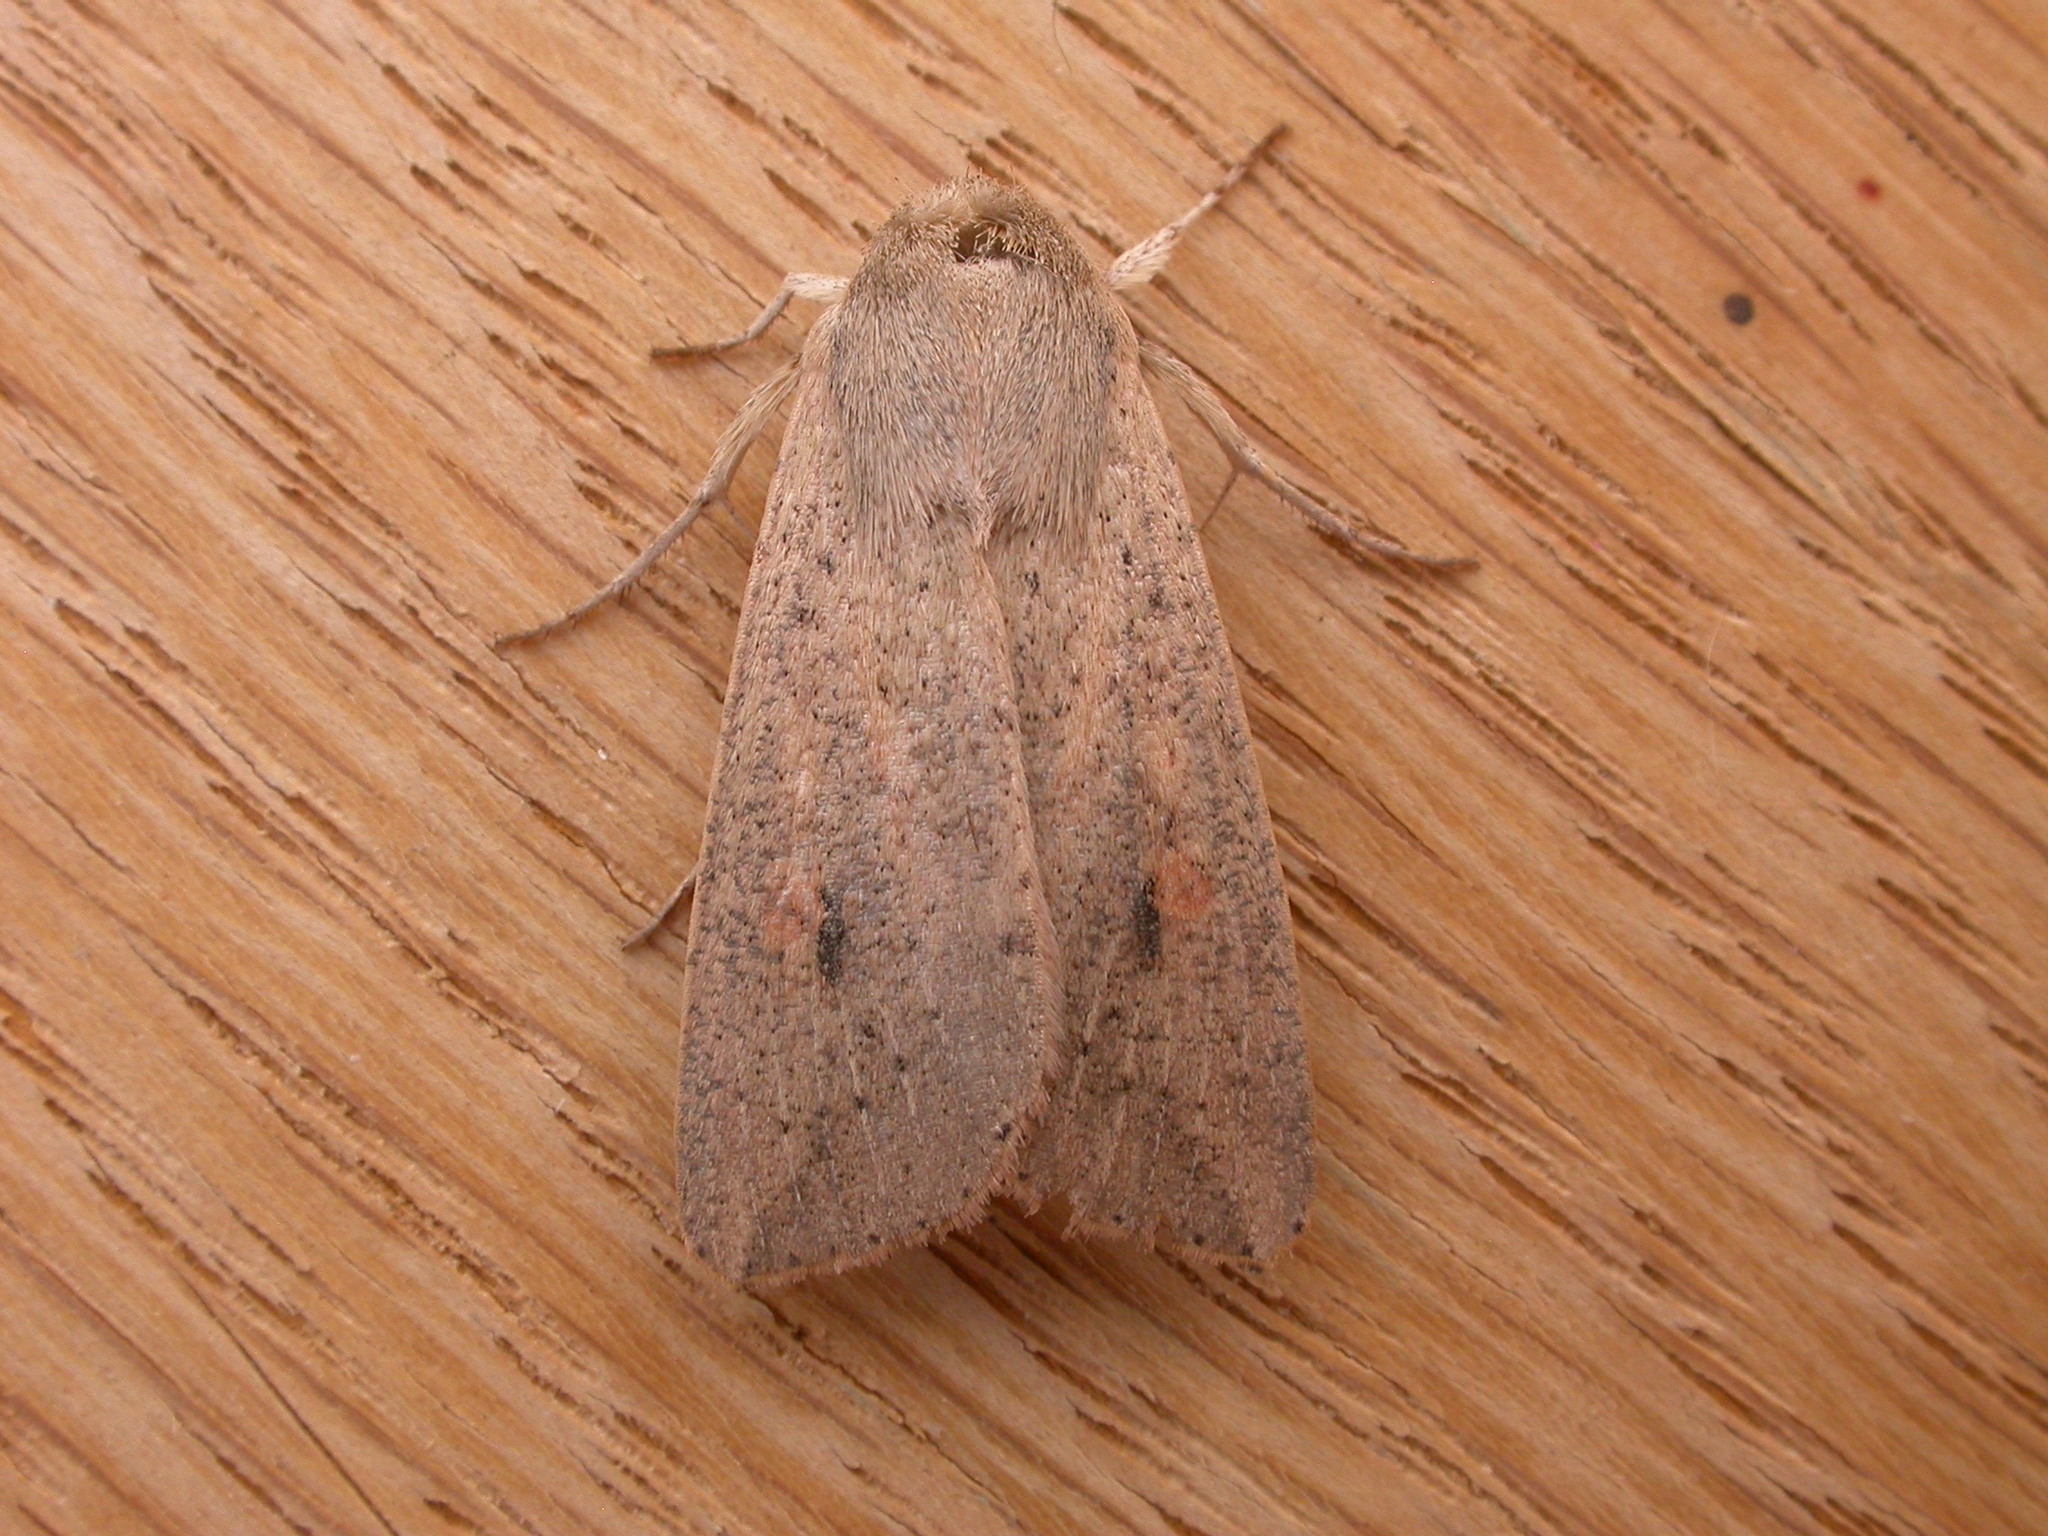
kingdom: Animalia
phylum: Arthropoda
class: Insecta
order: Lepidoptera
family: Noctuidae
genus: Mythimna
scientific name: Mythimna convecta
